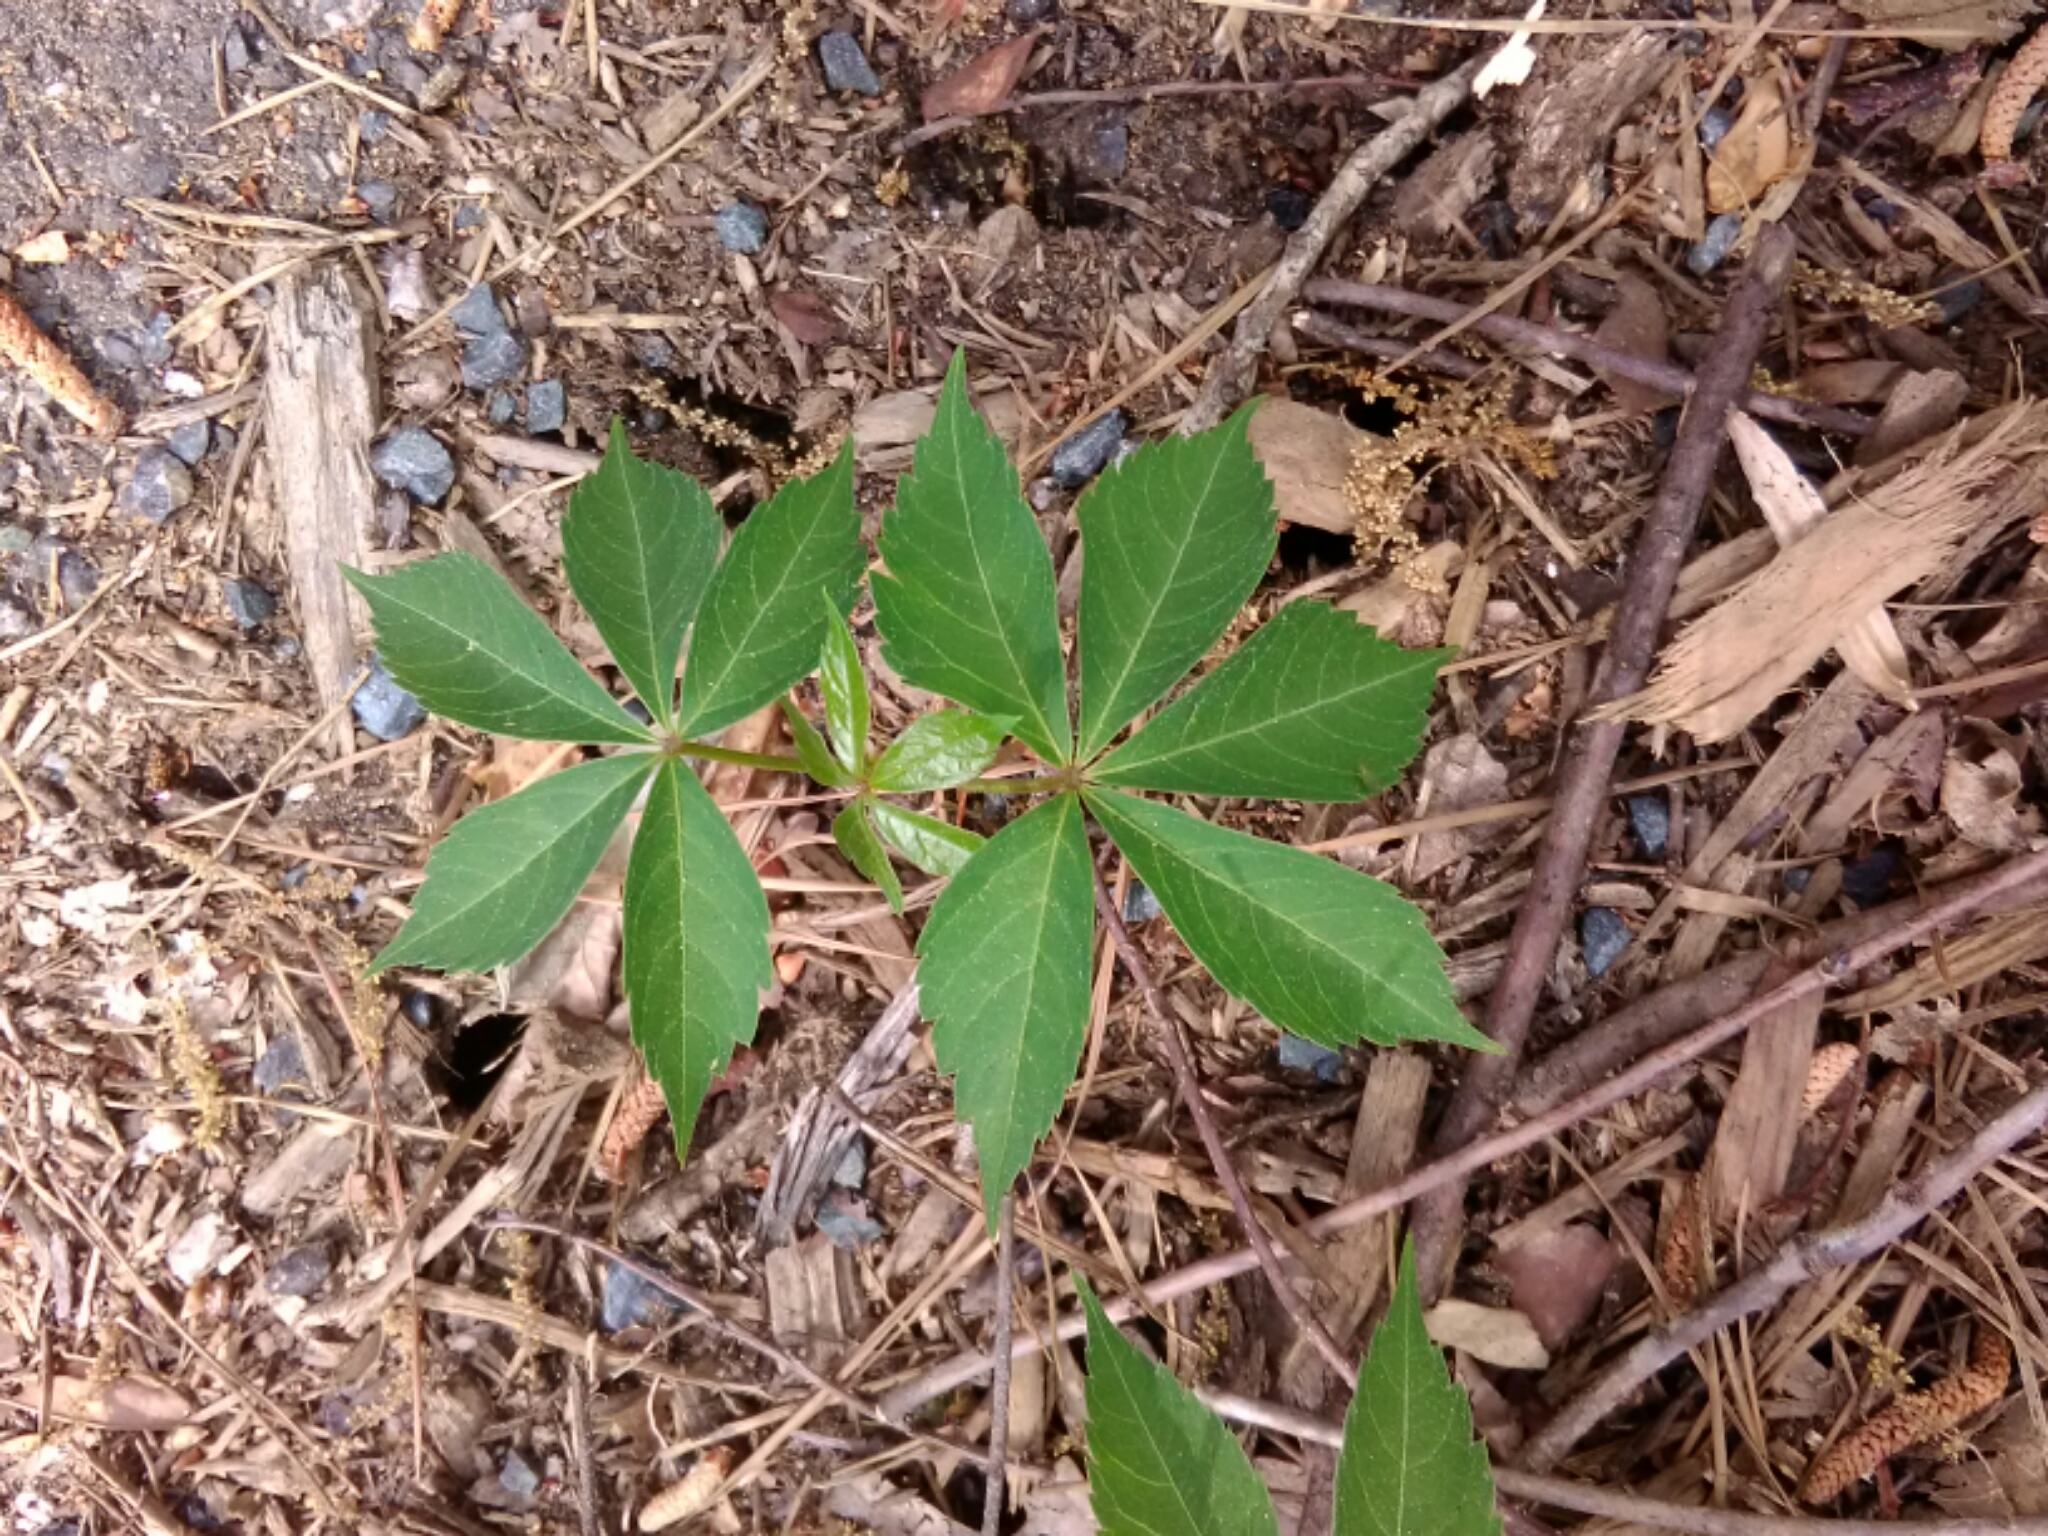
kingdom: Plantae
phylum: Tracheophyta
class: Magnoliopsida
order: Vitales
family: Vitaceae
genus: Parthenocissus
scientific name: Parthenocissus quinquefolia
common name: Virginia-creeper
